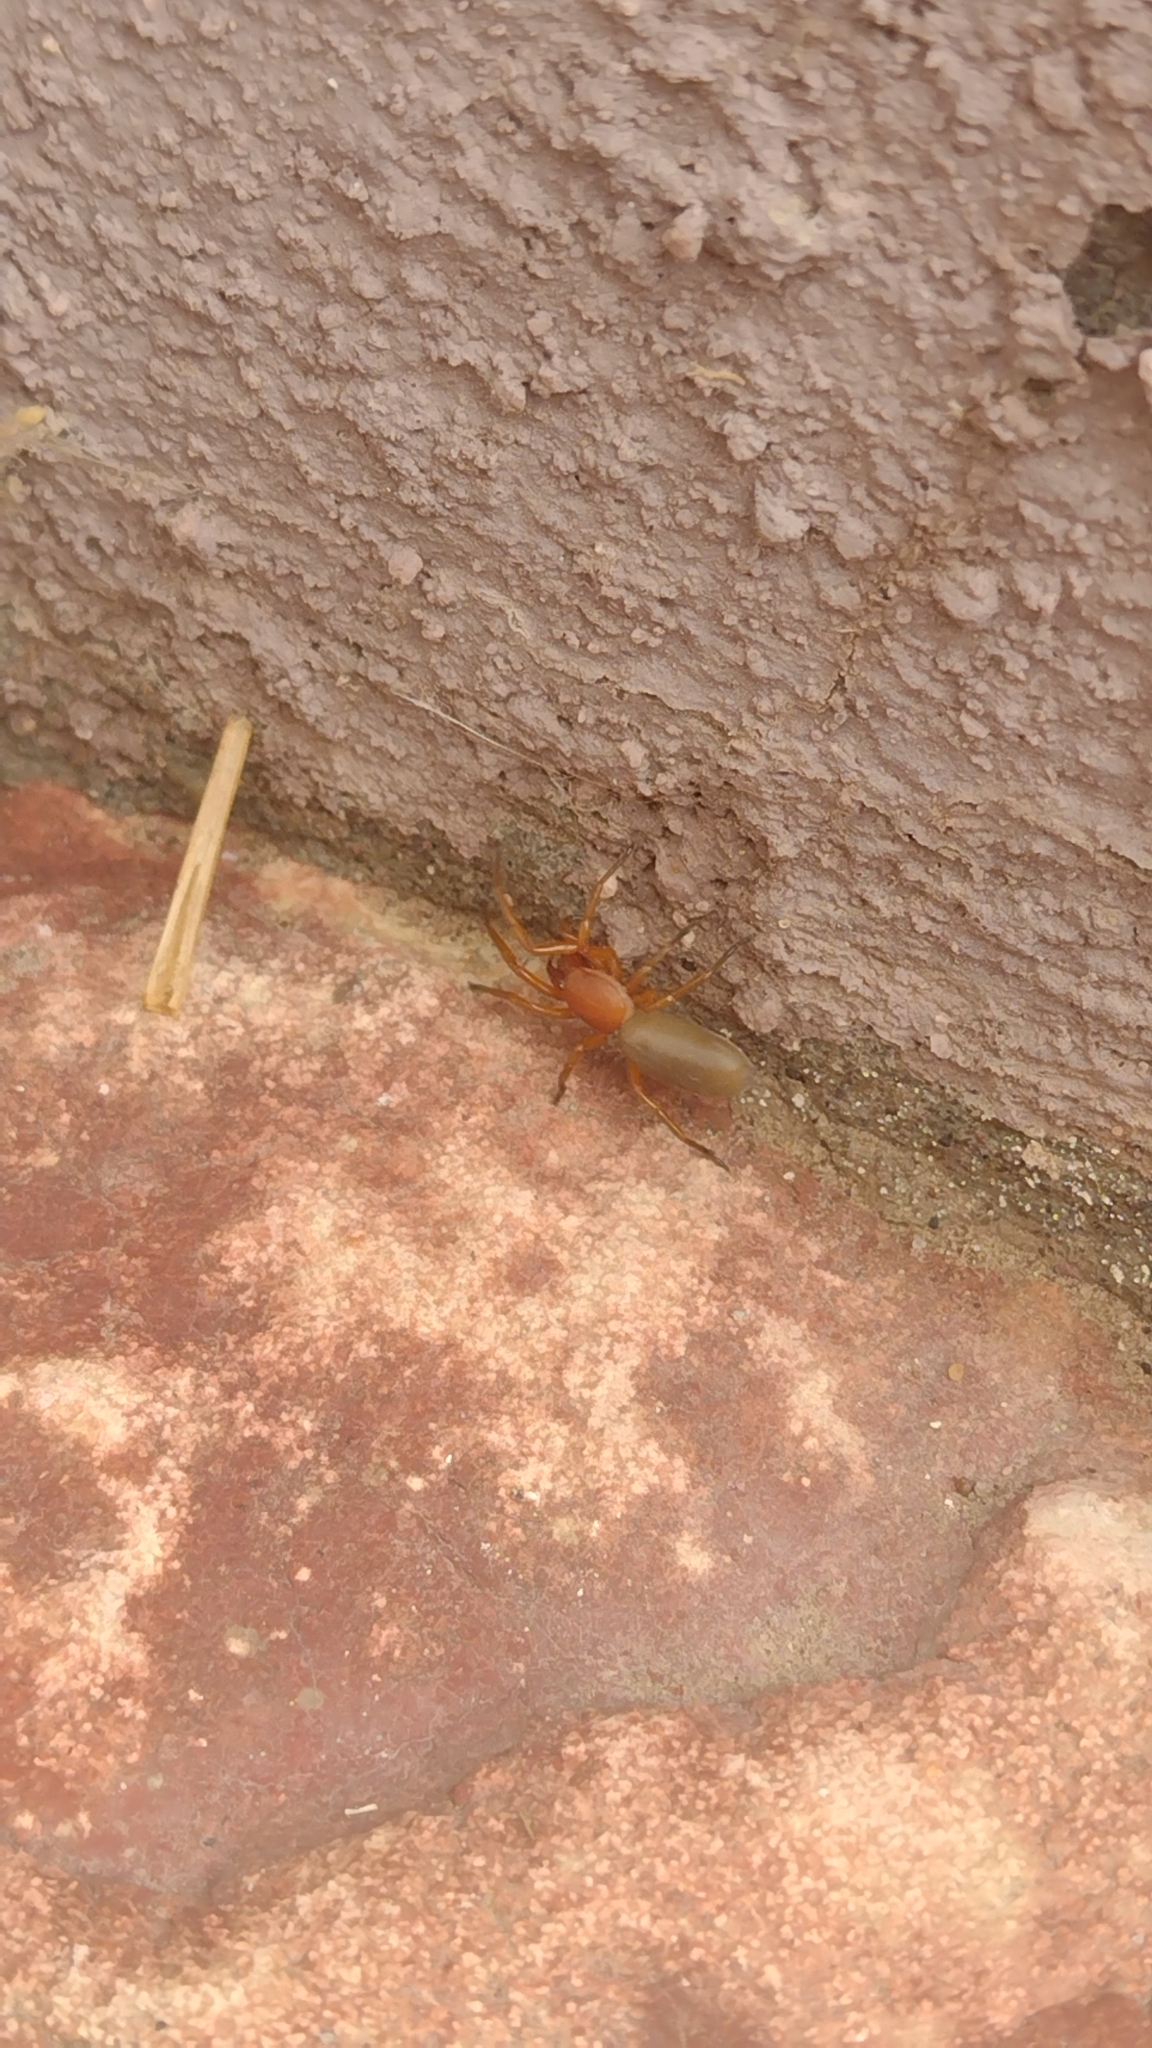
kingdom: Animalia
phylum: Arthropoda
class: Arachnida
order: Araneae
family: Dysderidae
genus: Dysdera
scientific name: Dysdera crocata
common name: Woodlouse spider
